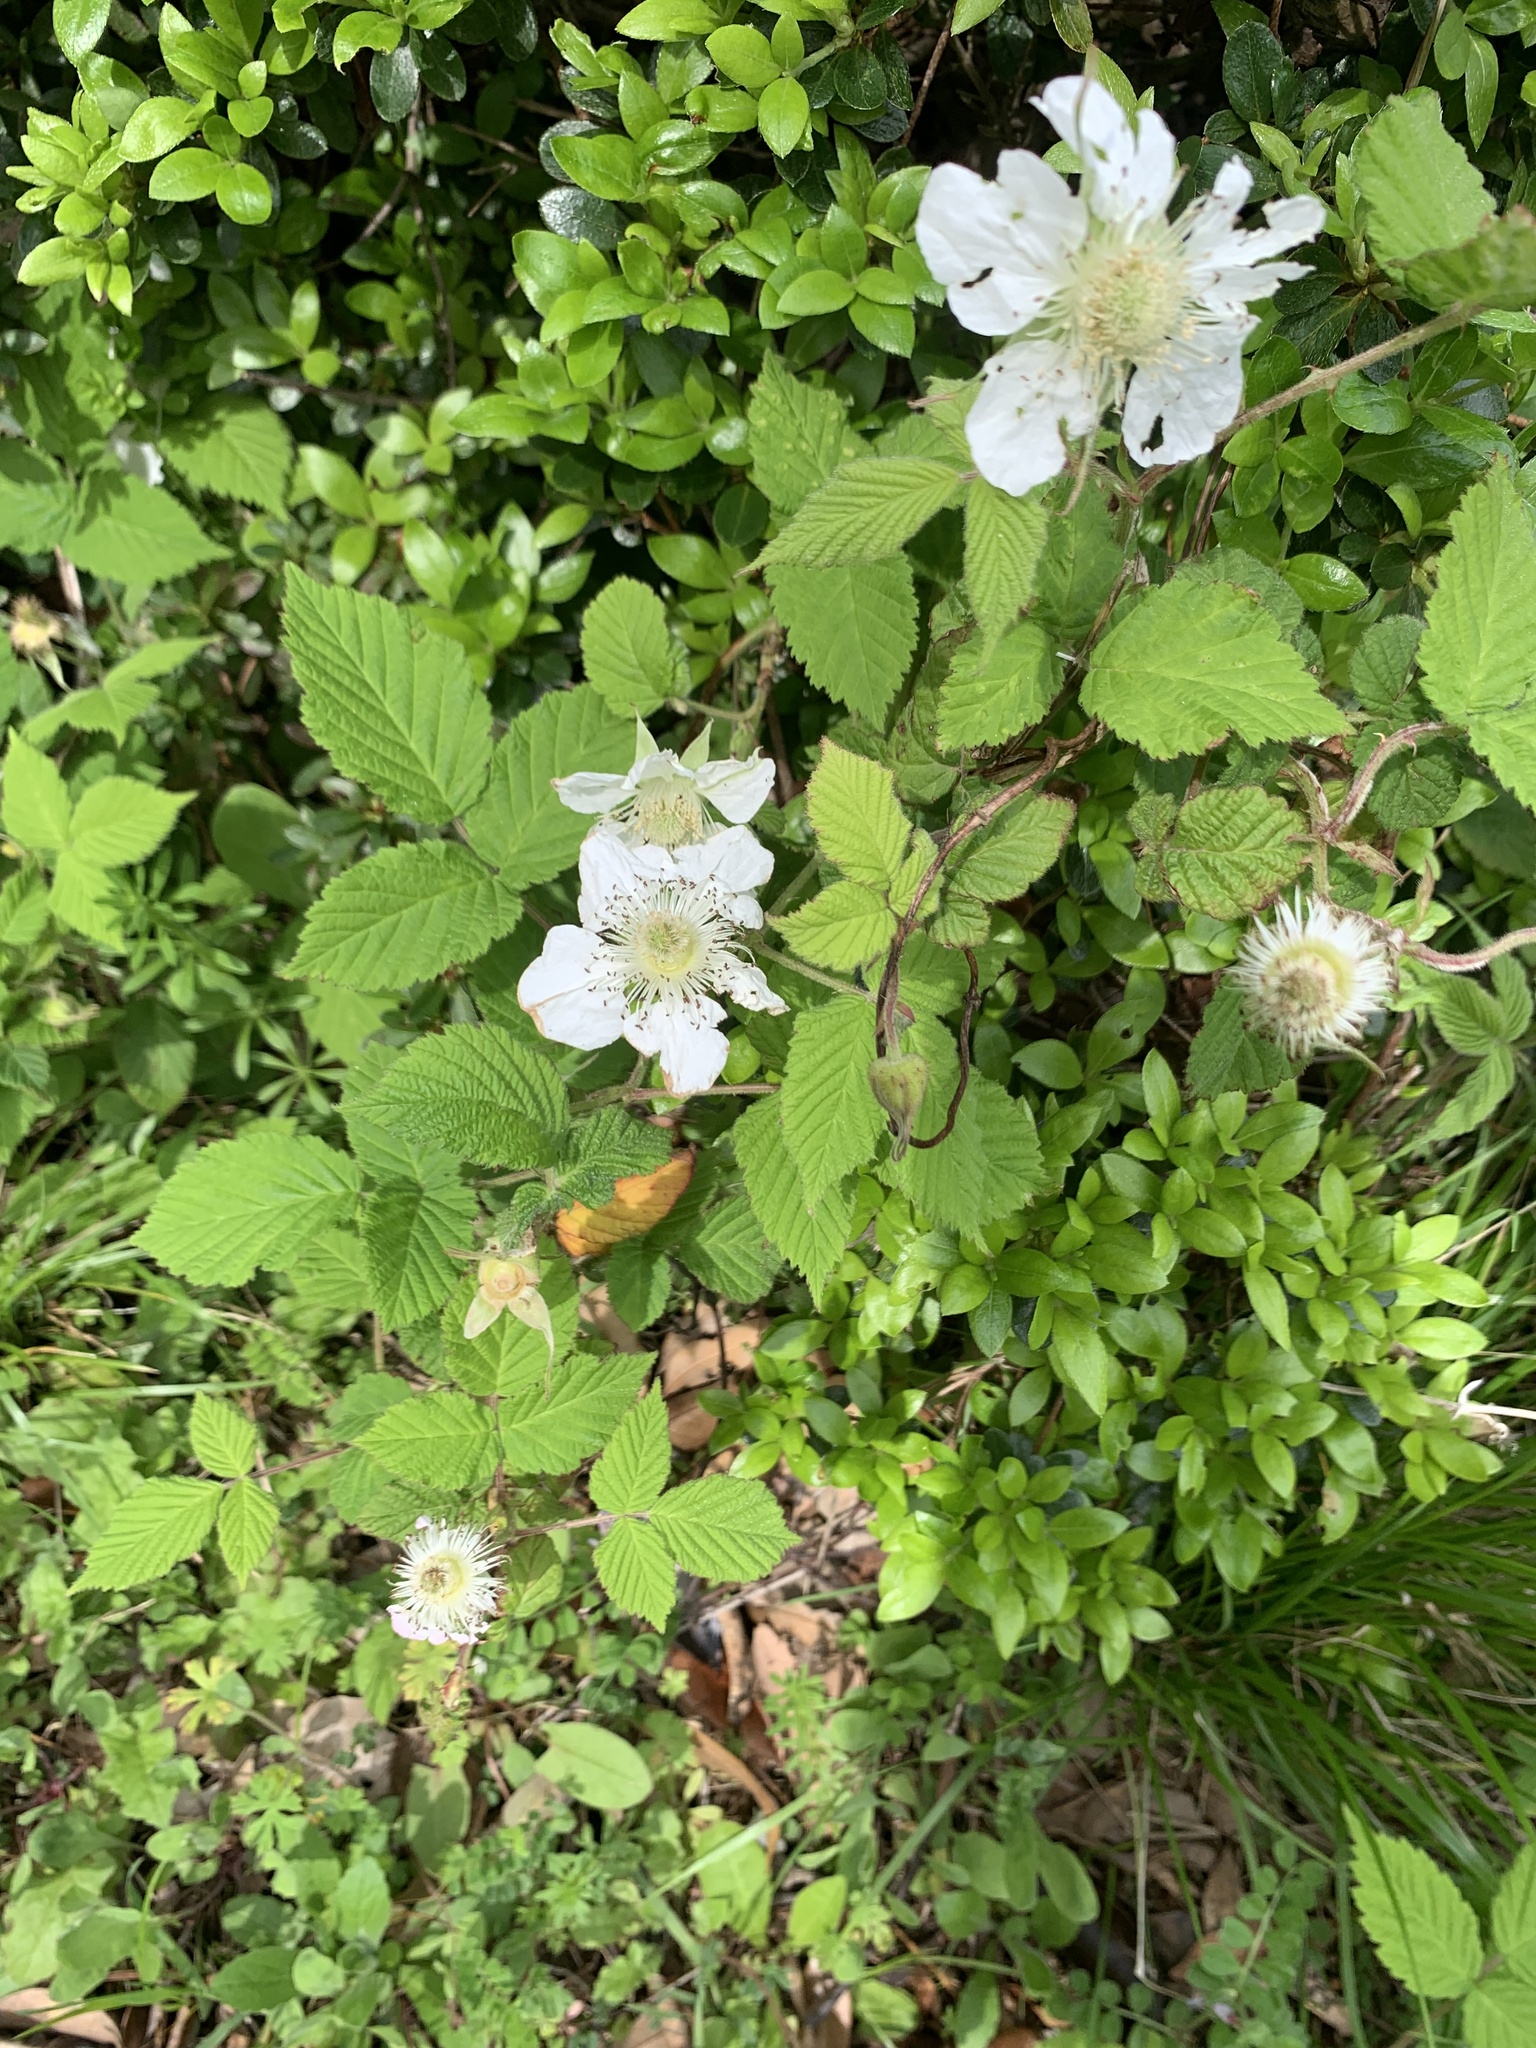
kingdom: Plantae
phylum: Tracheophyta
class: Magnoliopsida
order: Rosales
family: Rosaceae
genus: Rubus
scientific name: Rubus hirsutus
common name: Hirsute raspberry
